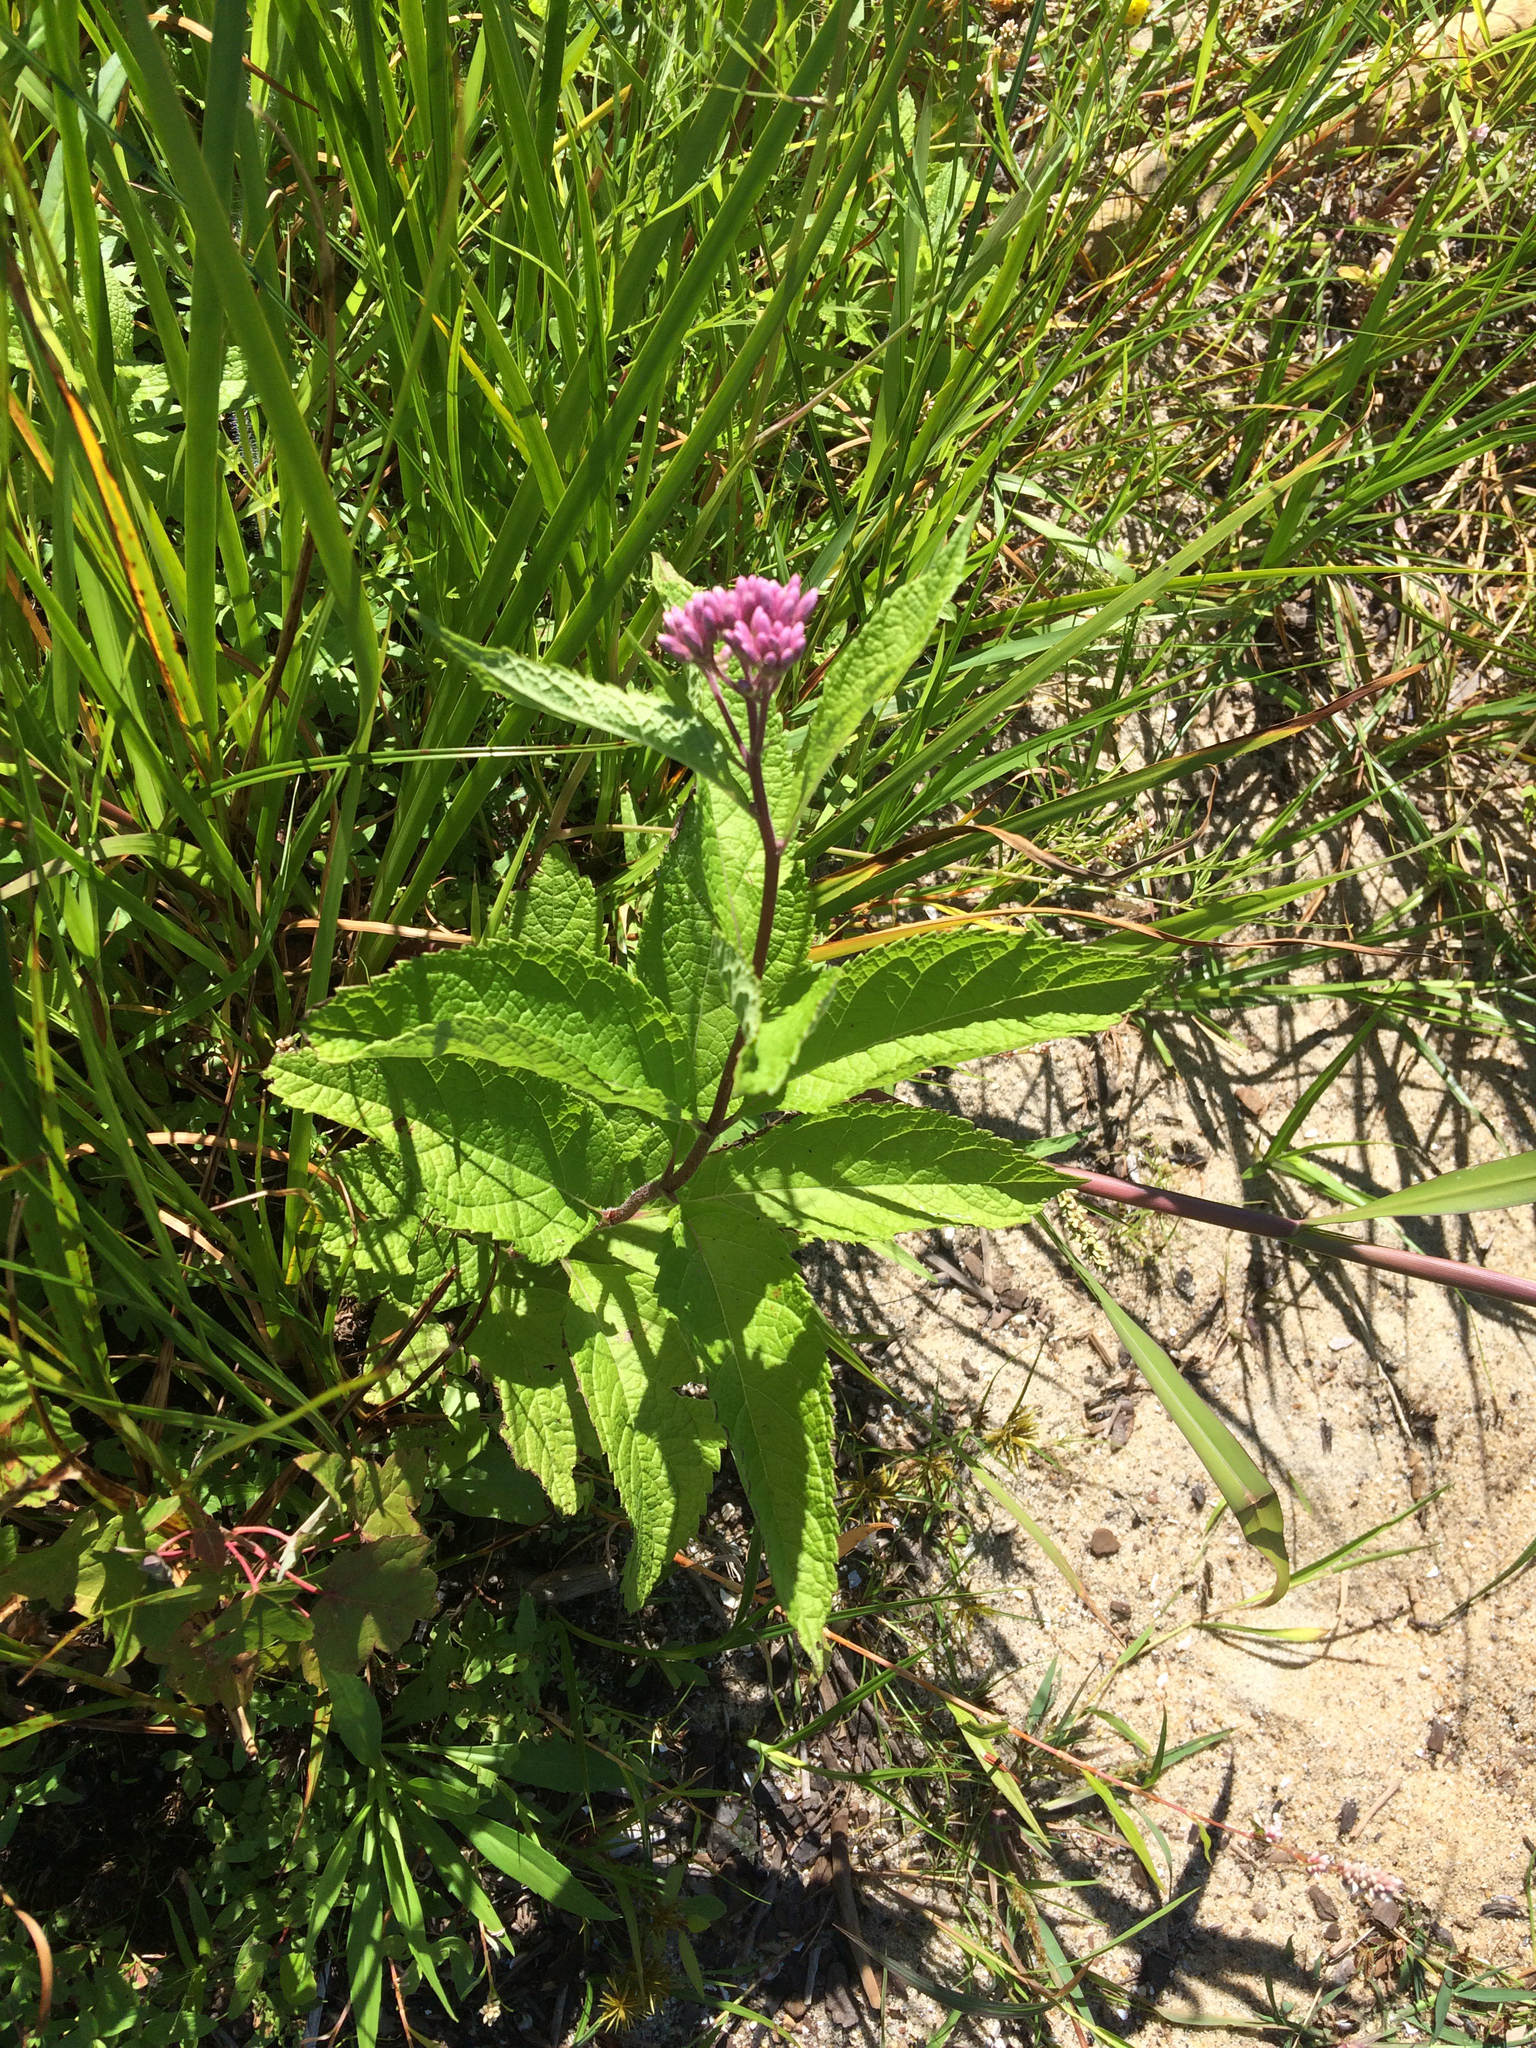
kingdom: Plantae
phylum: Tracheophyta
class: Magnoliopsida
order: Asterales
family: Asteraceae
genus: Eutrochium
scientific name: Eutrochium maculatum
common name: Spotted joe pye weed
